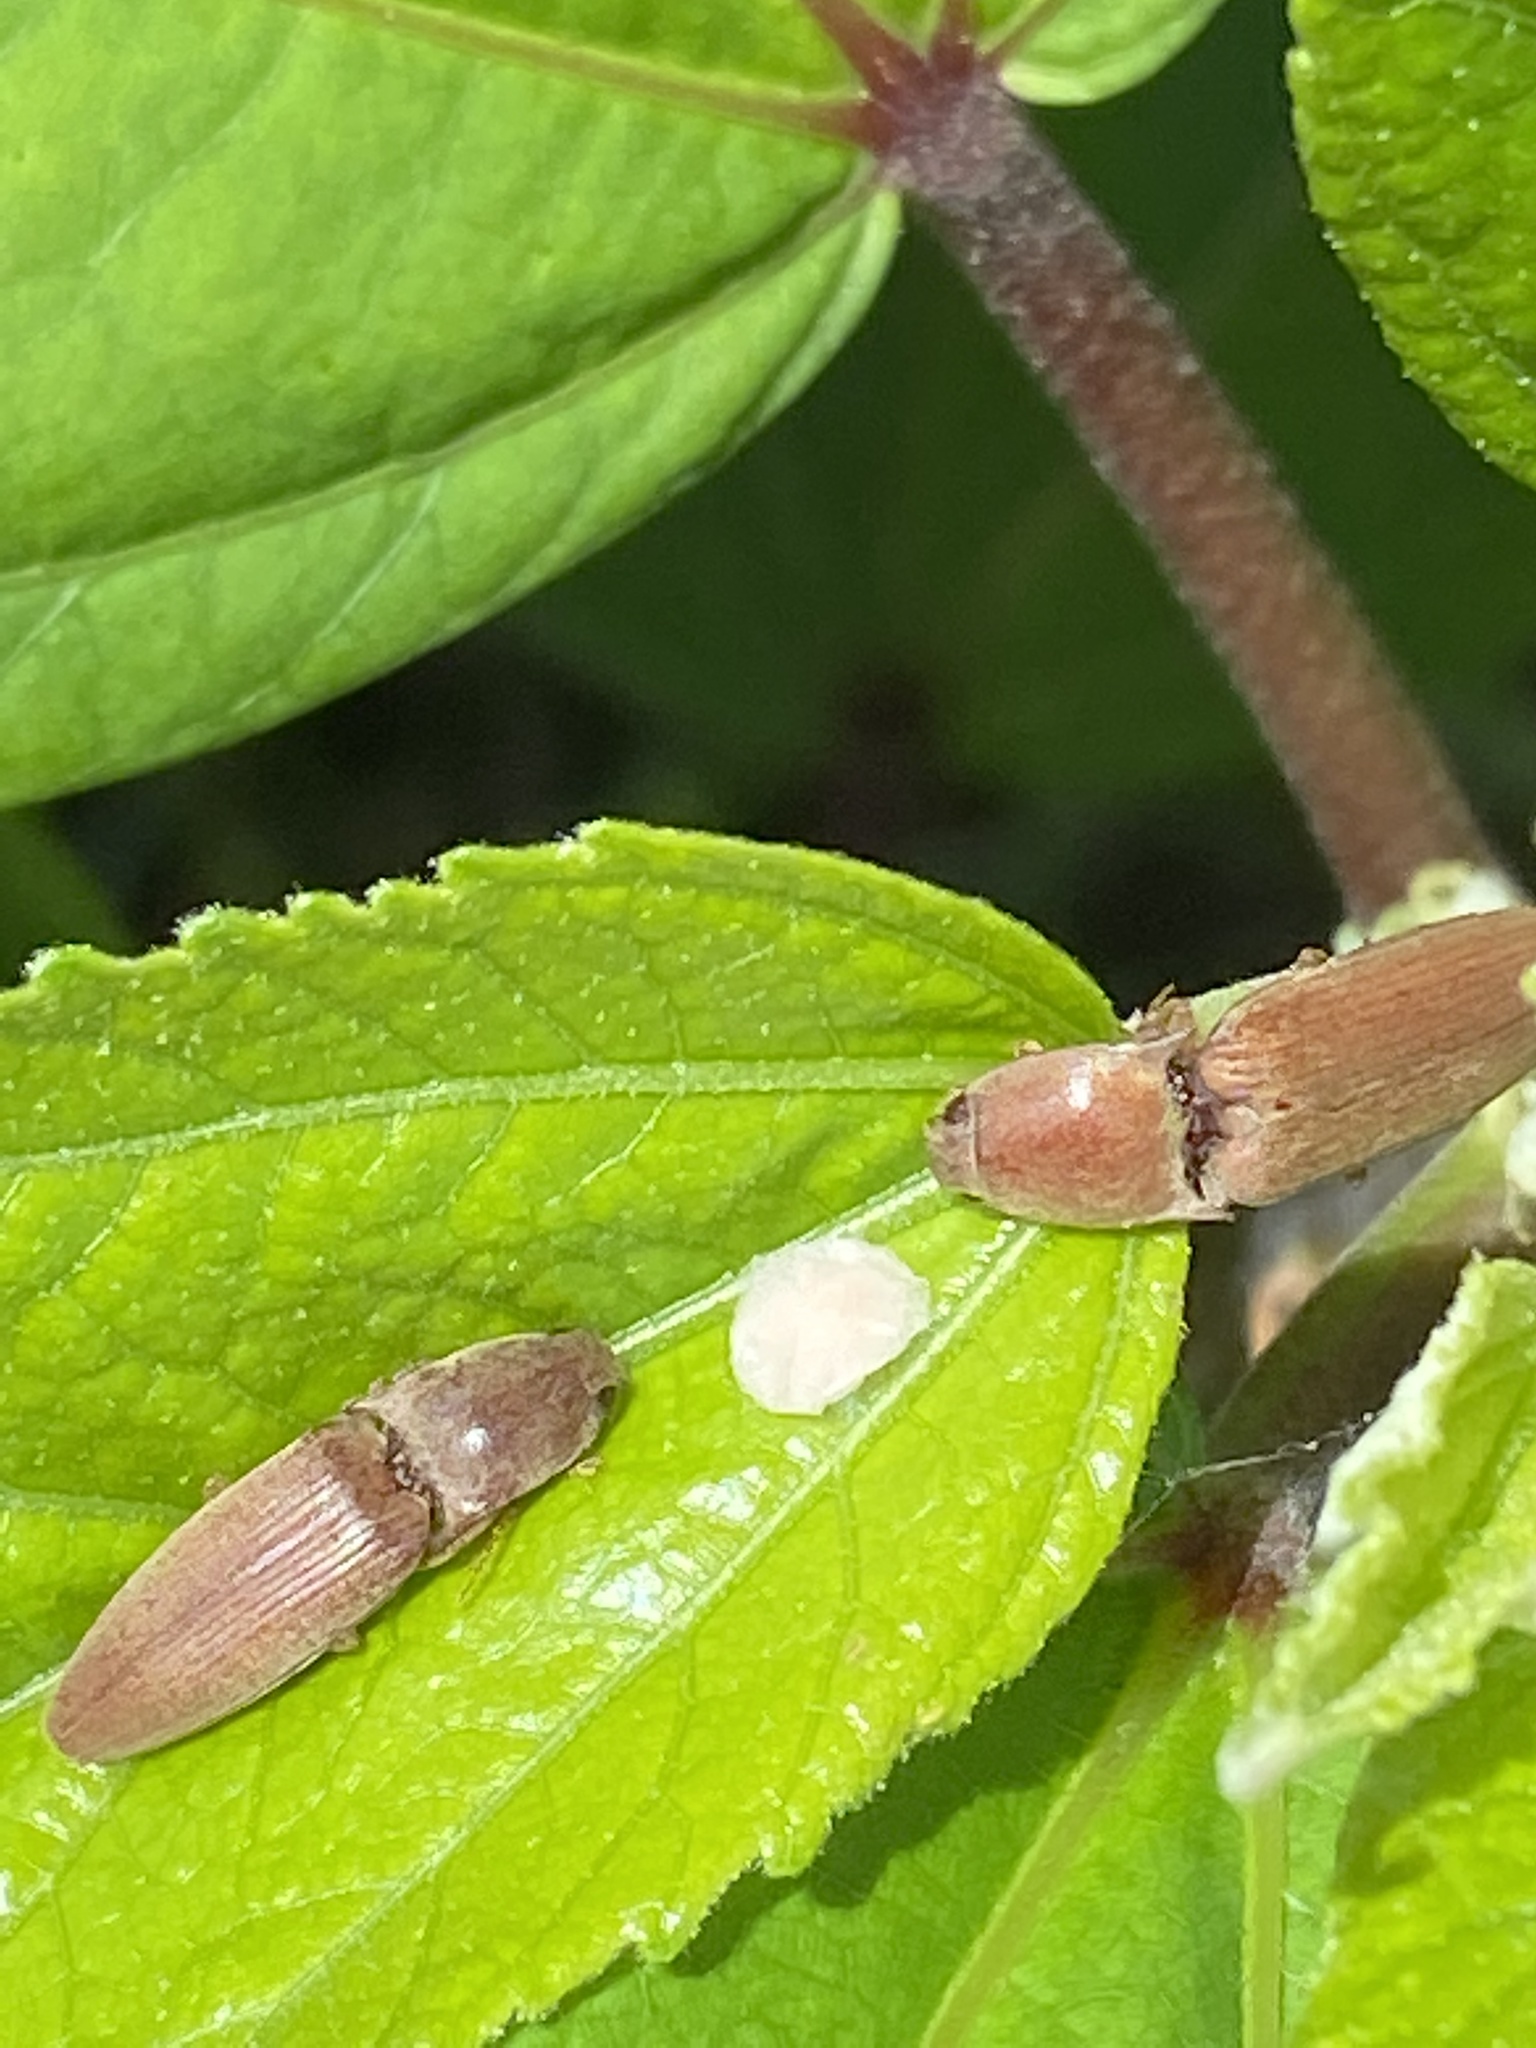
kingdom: Animalia
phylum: Arthropoda
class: Insecta
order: Coleoptera
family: Elateridae
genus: Monocrepidius
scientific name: Monocrepidius lividus
